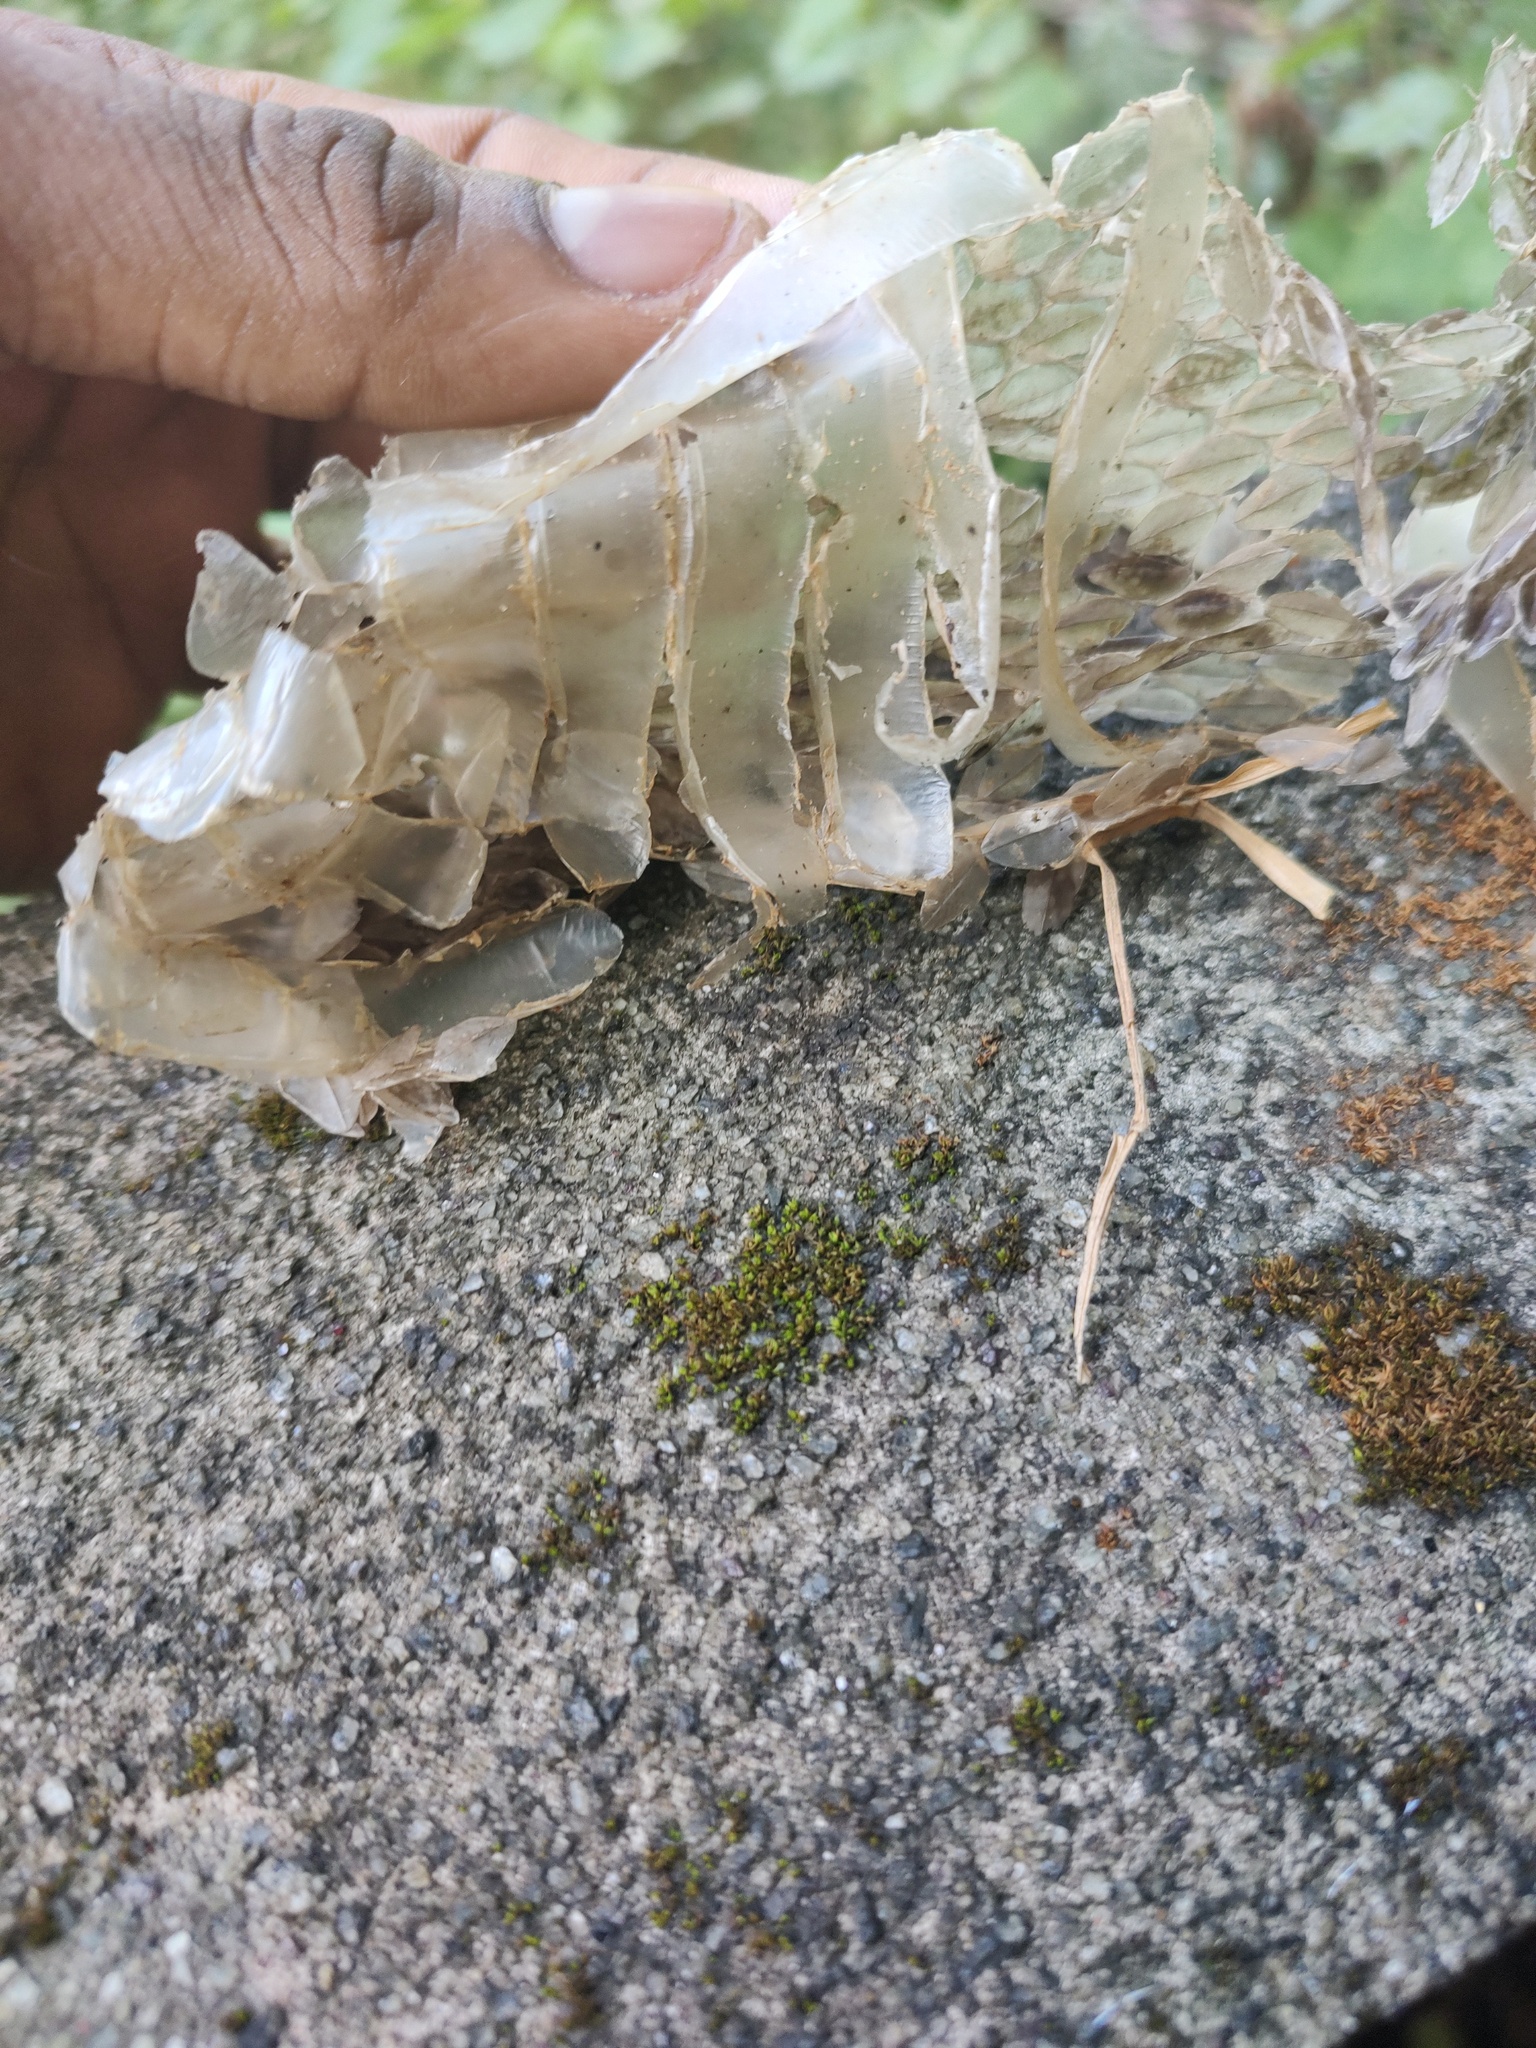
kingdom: Animalia
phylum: Chordata
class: Squamata
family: Viperidae
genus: Daboia
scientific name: Daboia russelii
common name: Western russel’s viper
